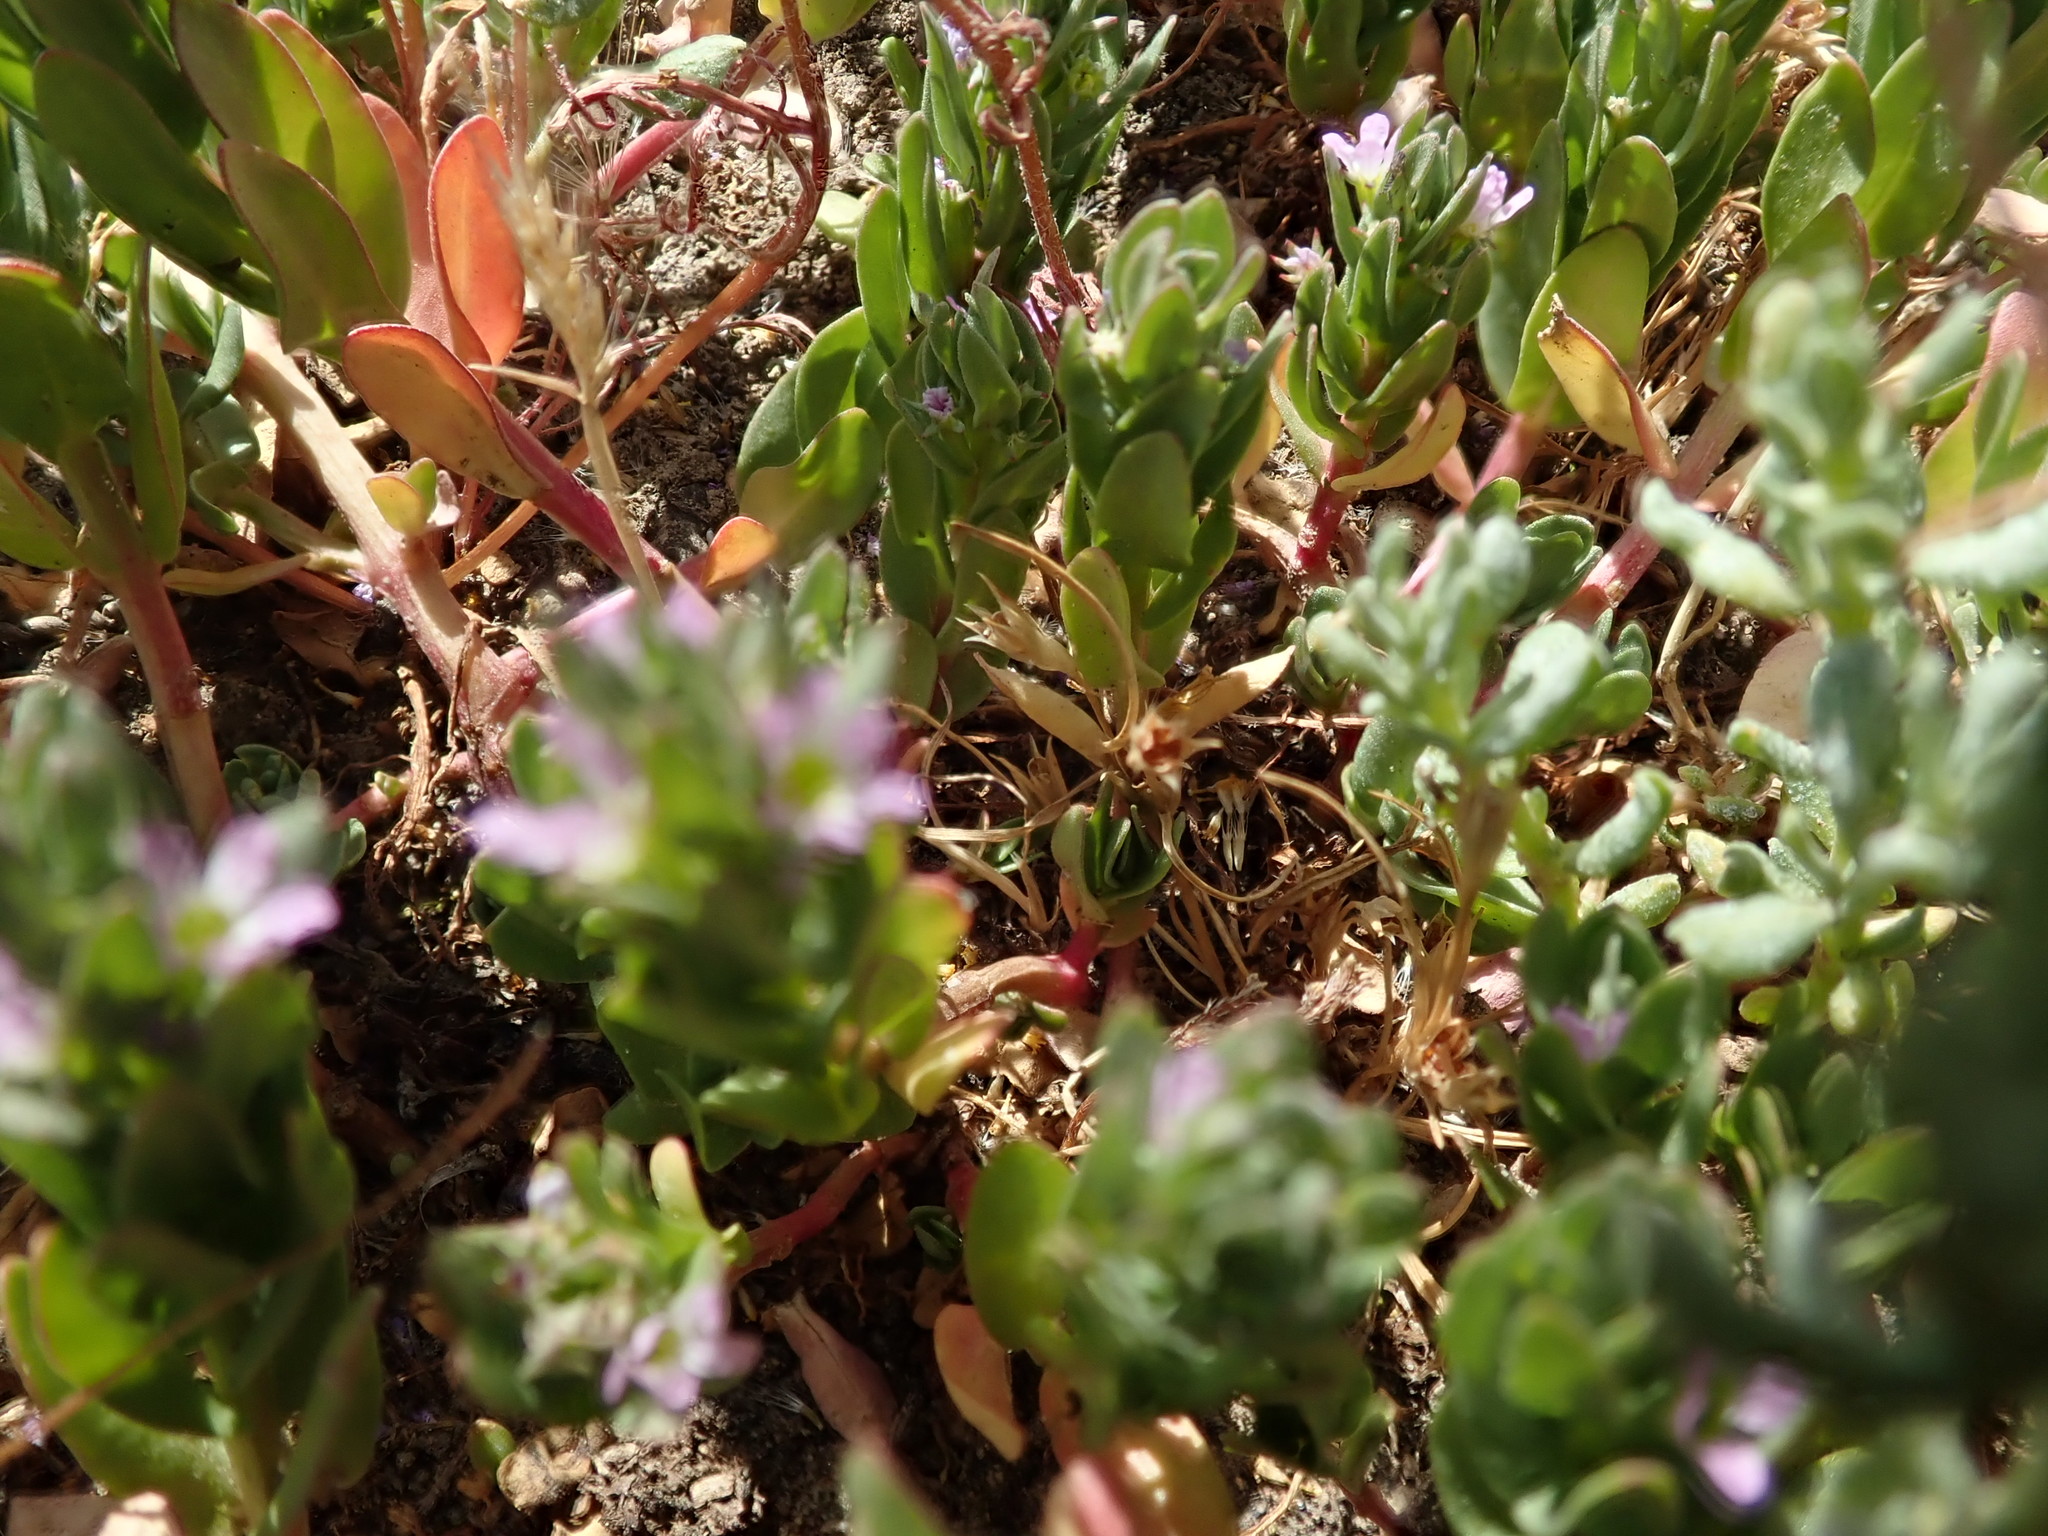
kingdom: Plantae
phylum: Tracheophyta
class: Magnoliopsida
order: Myrtales
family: Lythraceae
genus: Lythrum
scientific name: Lythrum hyssopifolia
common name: Grass-poly
